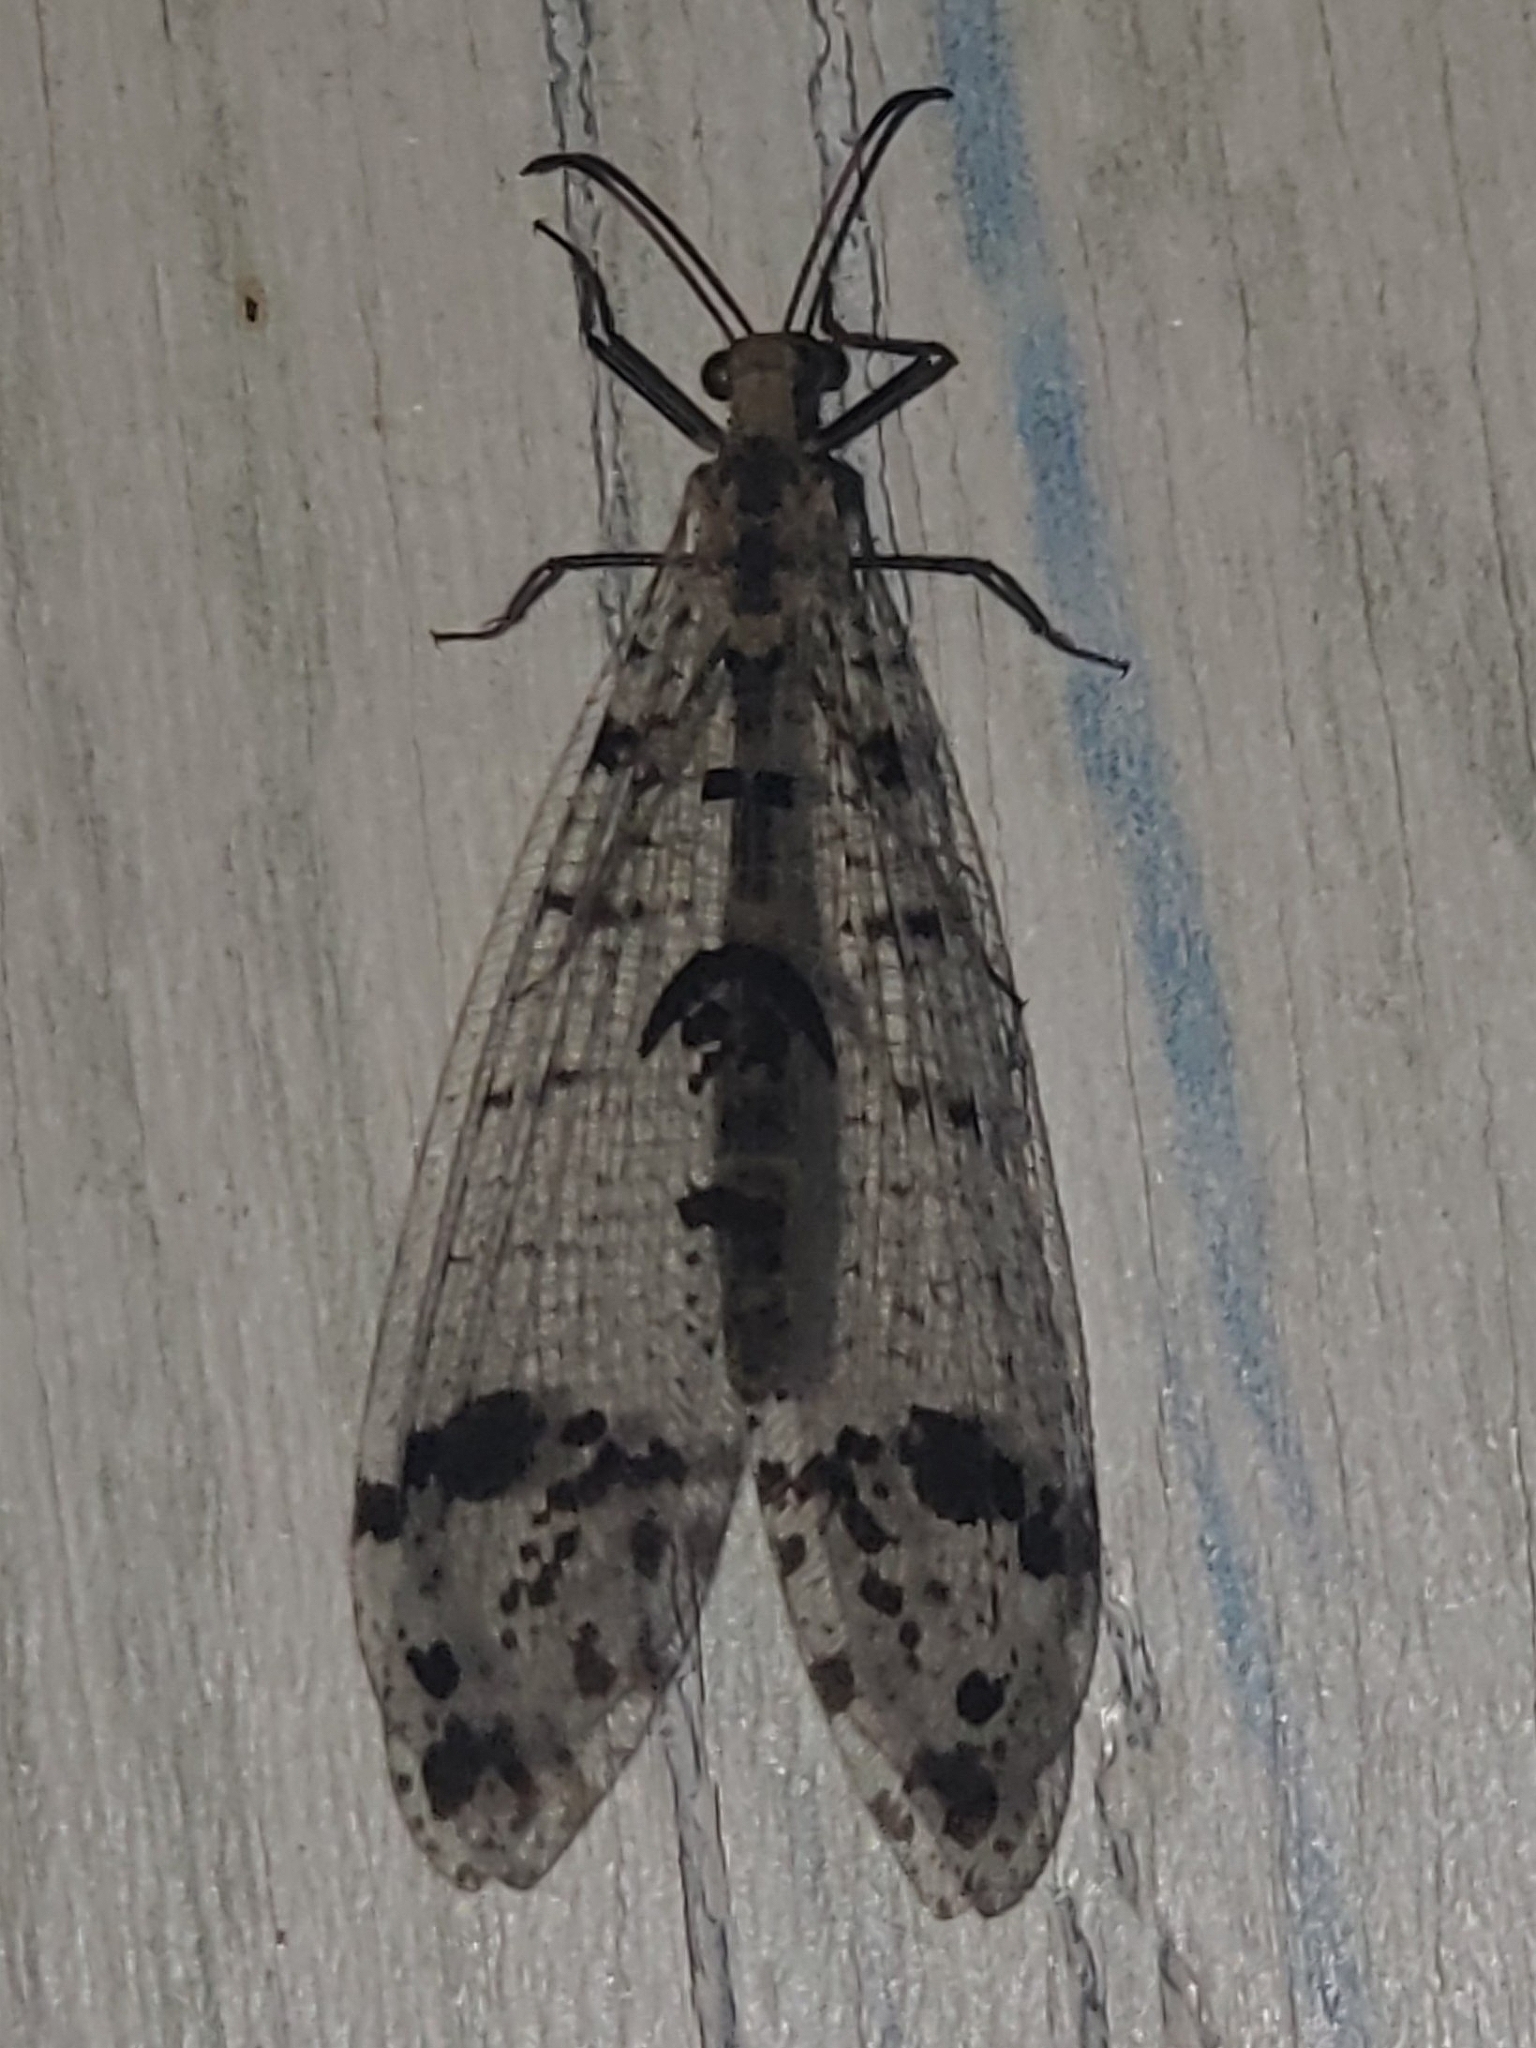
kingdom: Animalia
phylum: Arthropoda
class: Insecta
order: Neuroptera
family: Myrmeleontidae
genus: Dendroleon
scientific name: Dendroleon obsoletus
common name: Eastern spotted-winged antlion
